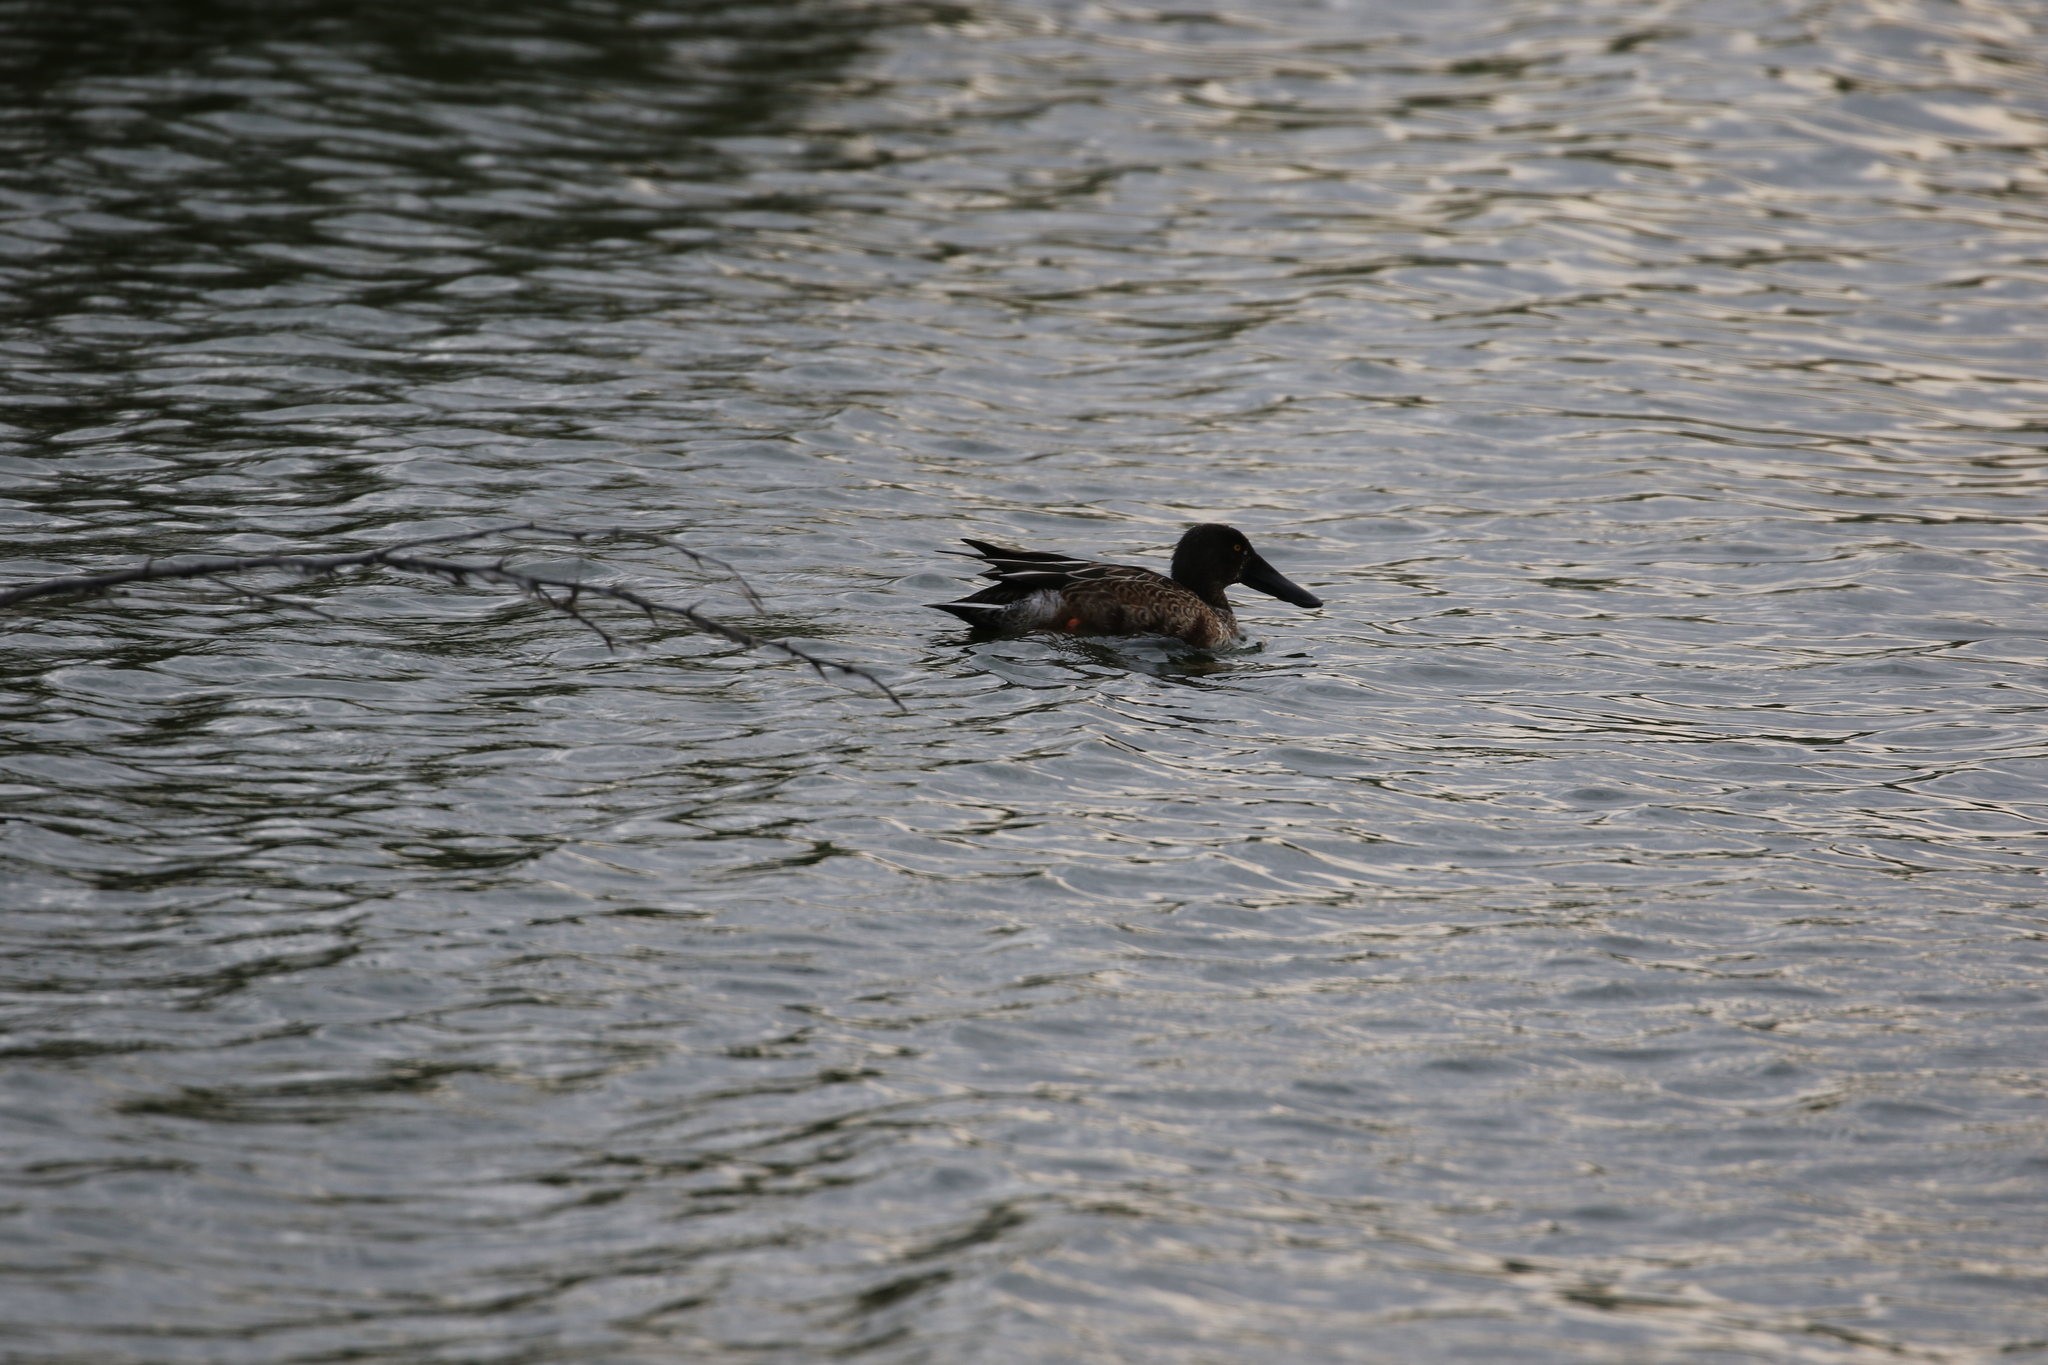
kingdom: Animalia
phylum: Chordata
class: Aves
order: Anseriformes
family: Anatidae
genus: Spatula
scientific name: Spatula clypeata
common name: Northern shoveler
